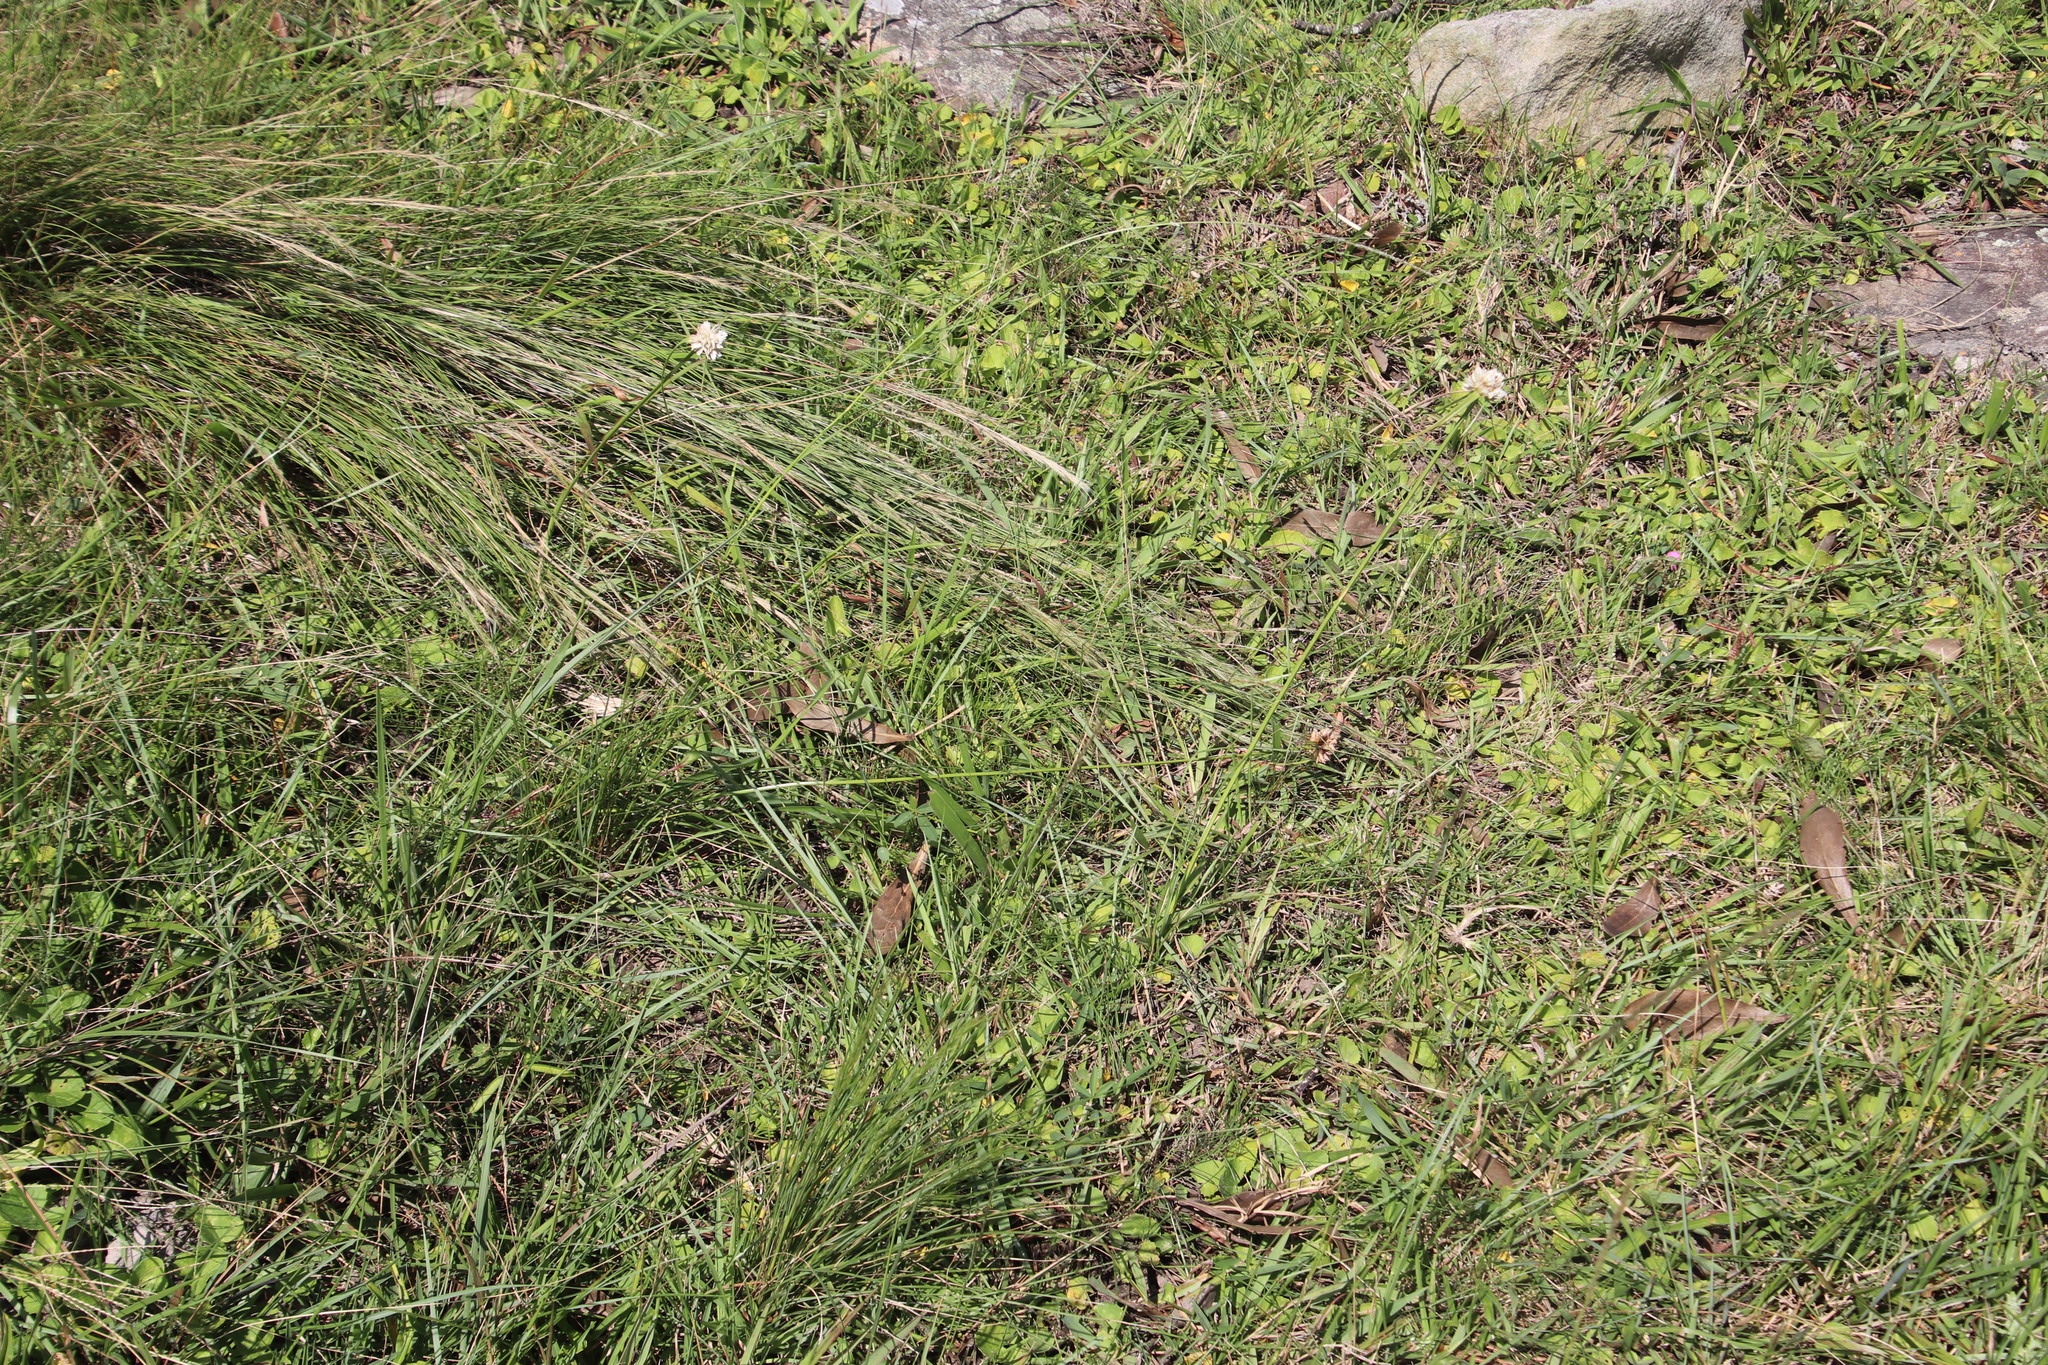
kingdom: Plantae
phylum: Tracheophyta
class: Liliopsida
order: Poales
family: Cyperaceae
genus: Cyperus
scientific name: Cyperus niveus
